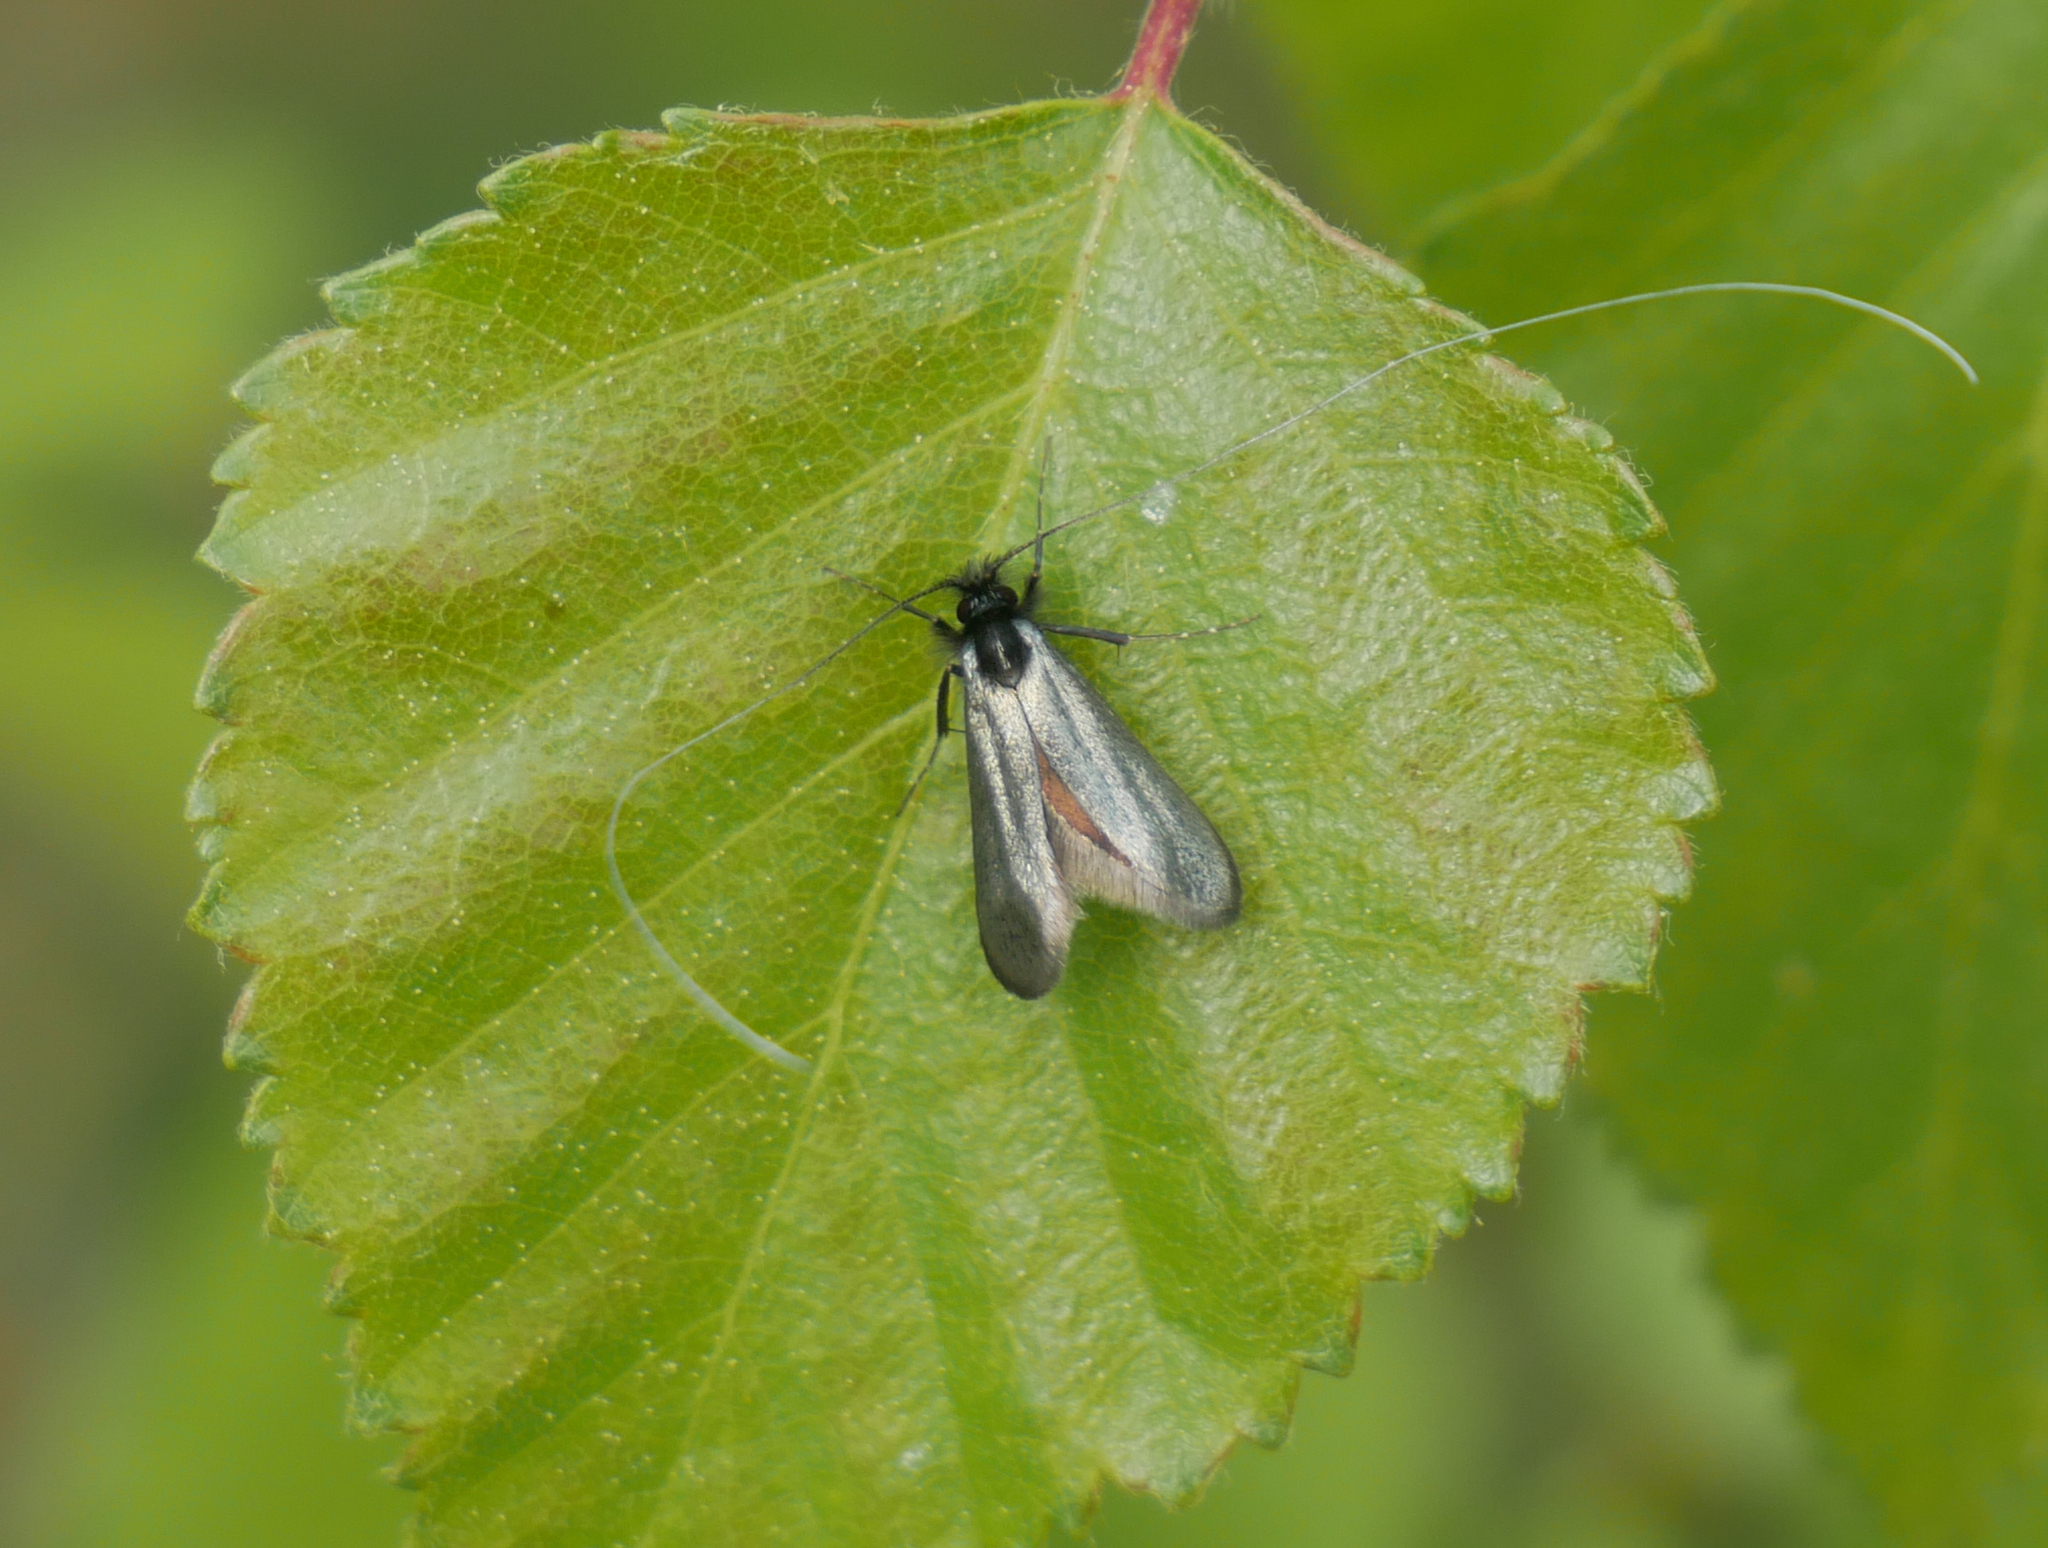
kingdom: Animalia
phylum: Arthropoda
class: Insecta
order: Lepidoptera
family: Adelidae
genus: Adela
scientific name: Adela viridella
